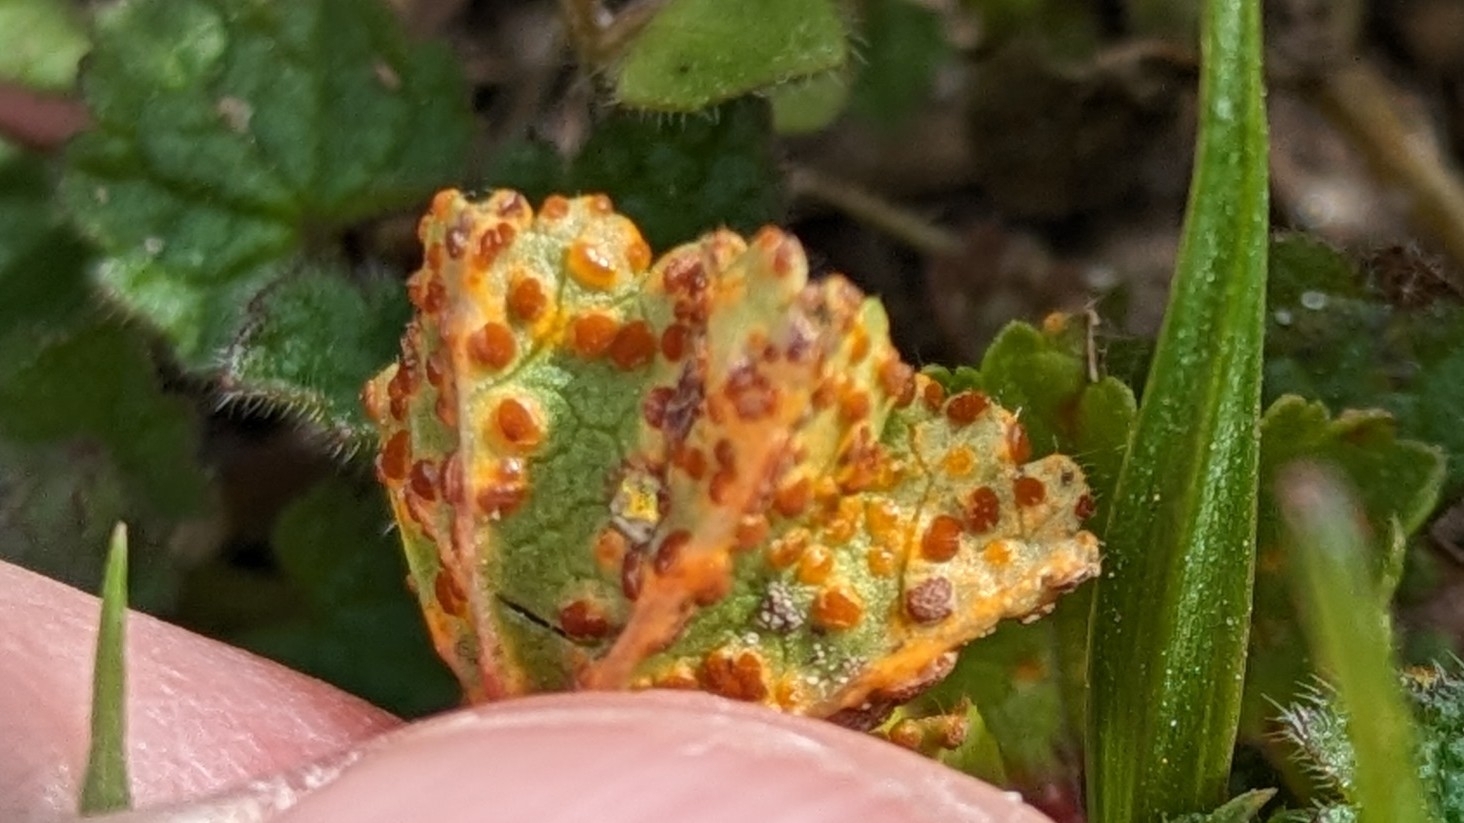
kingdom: Fungi
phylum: Basidiomycota
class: Pucciniomycetes
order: Pucciniales
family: Pucciniaceae
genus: Puccinia
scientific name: Puccinia malvacearum
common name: Hollyhock rust
